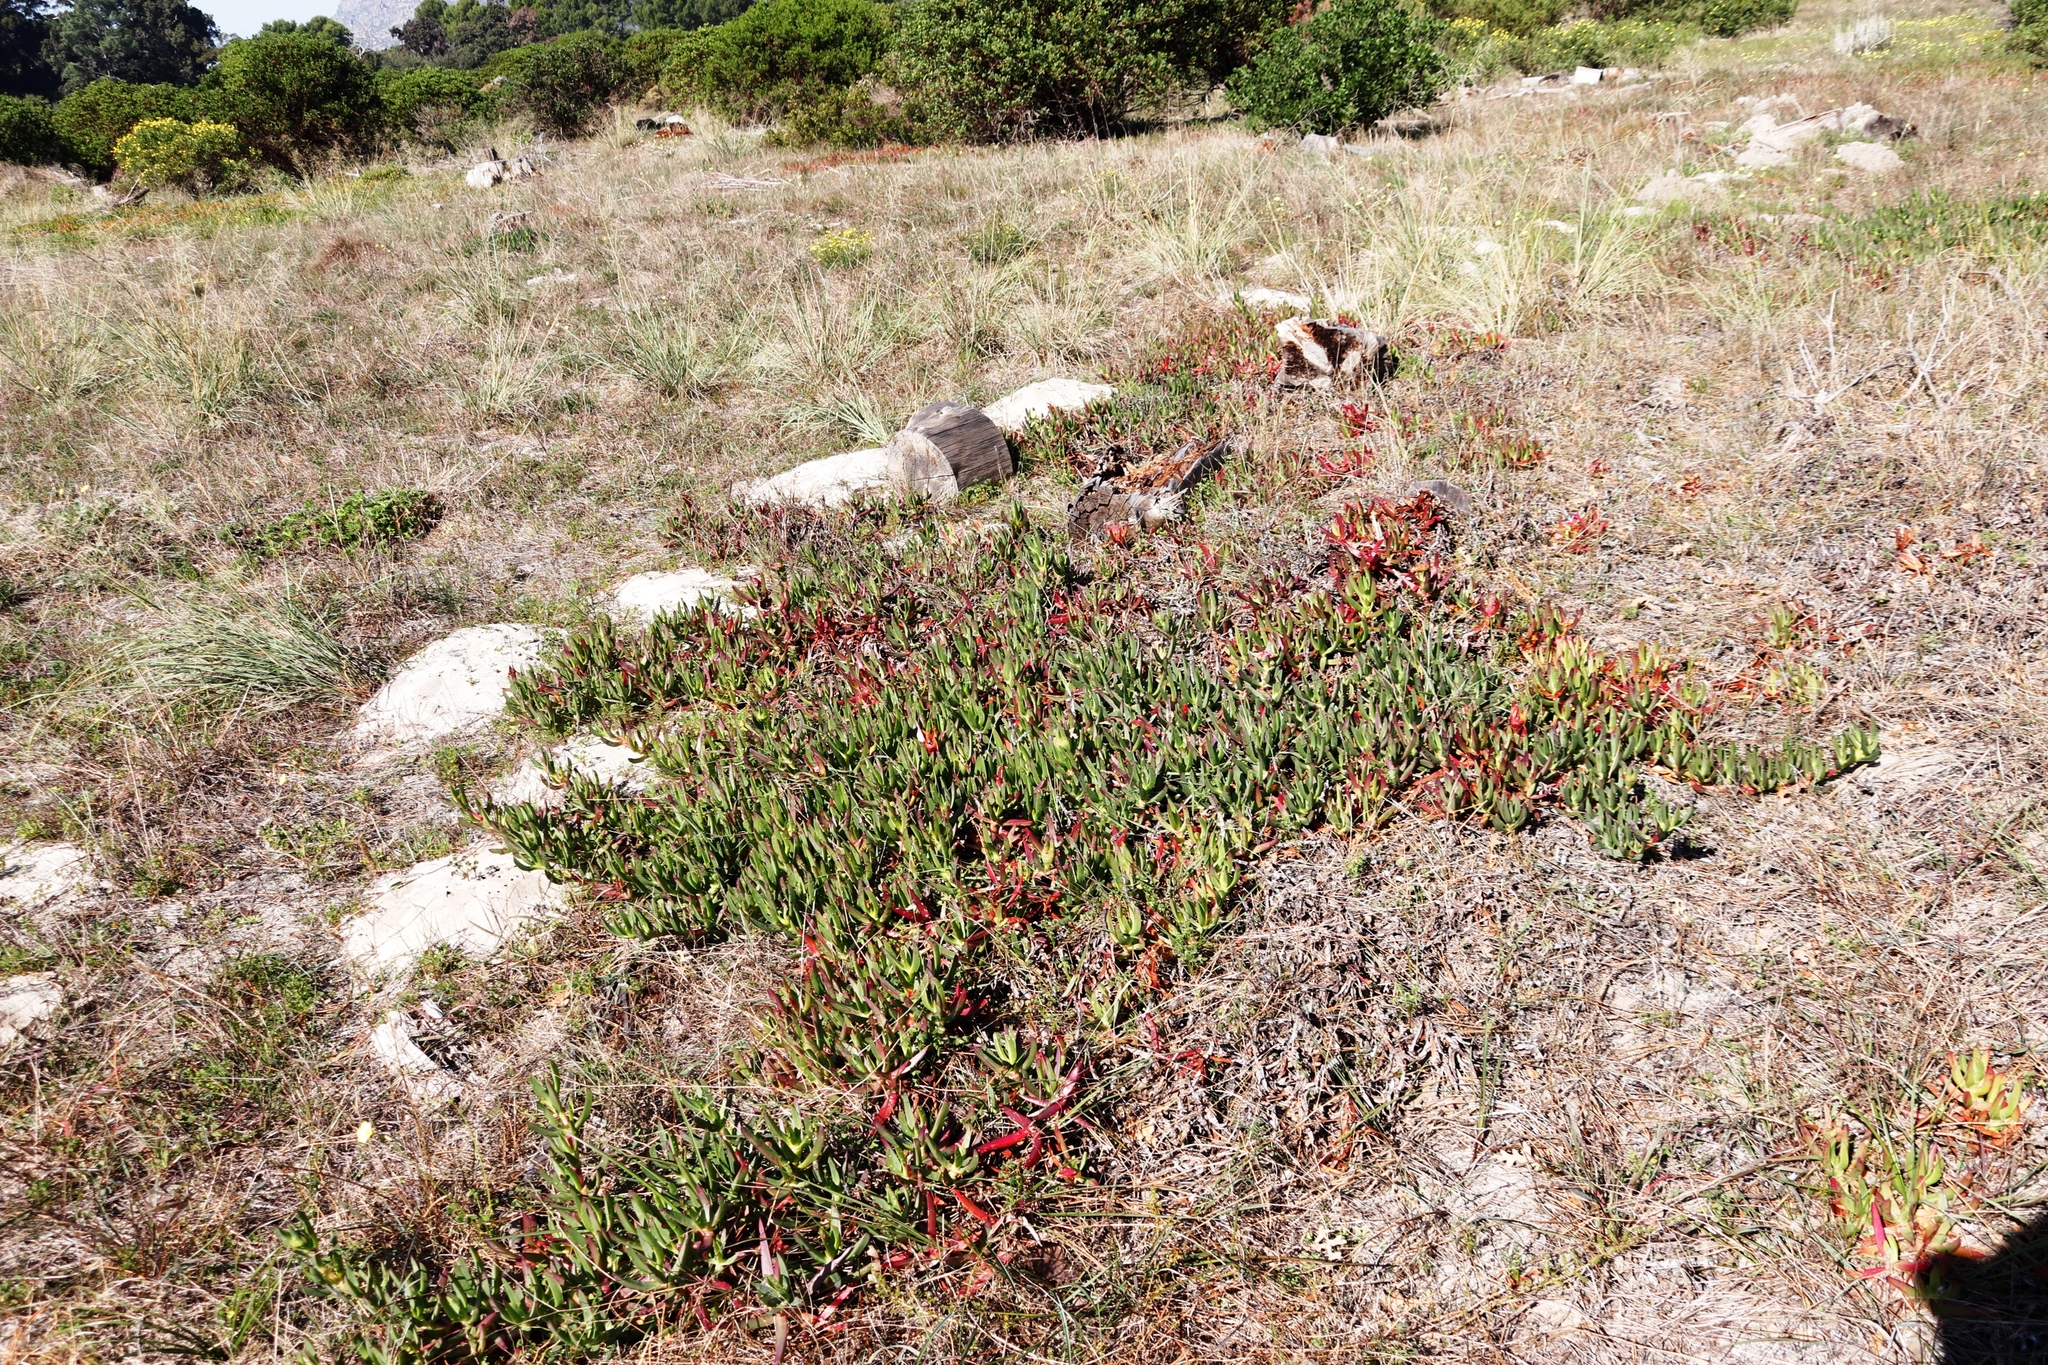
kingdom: Plantae
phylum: Tracheophyta
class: Magnoliopsida
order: Caryophyllales
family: Aizoaceae
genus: Carpobrotus
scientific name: Carpobrotus edulis
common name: Hottentot-fig
